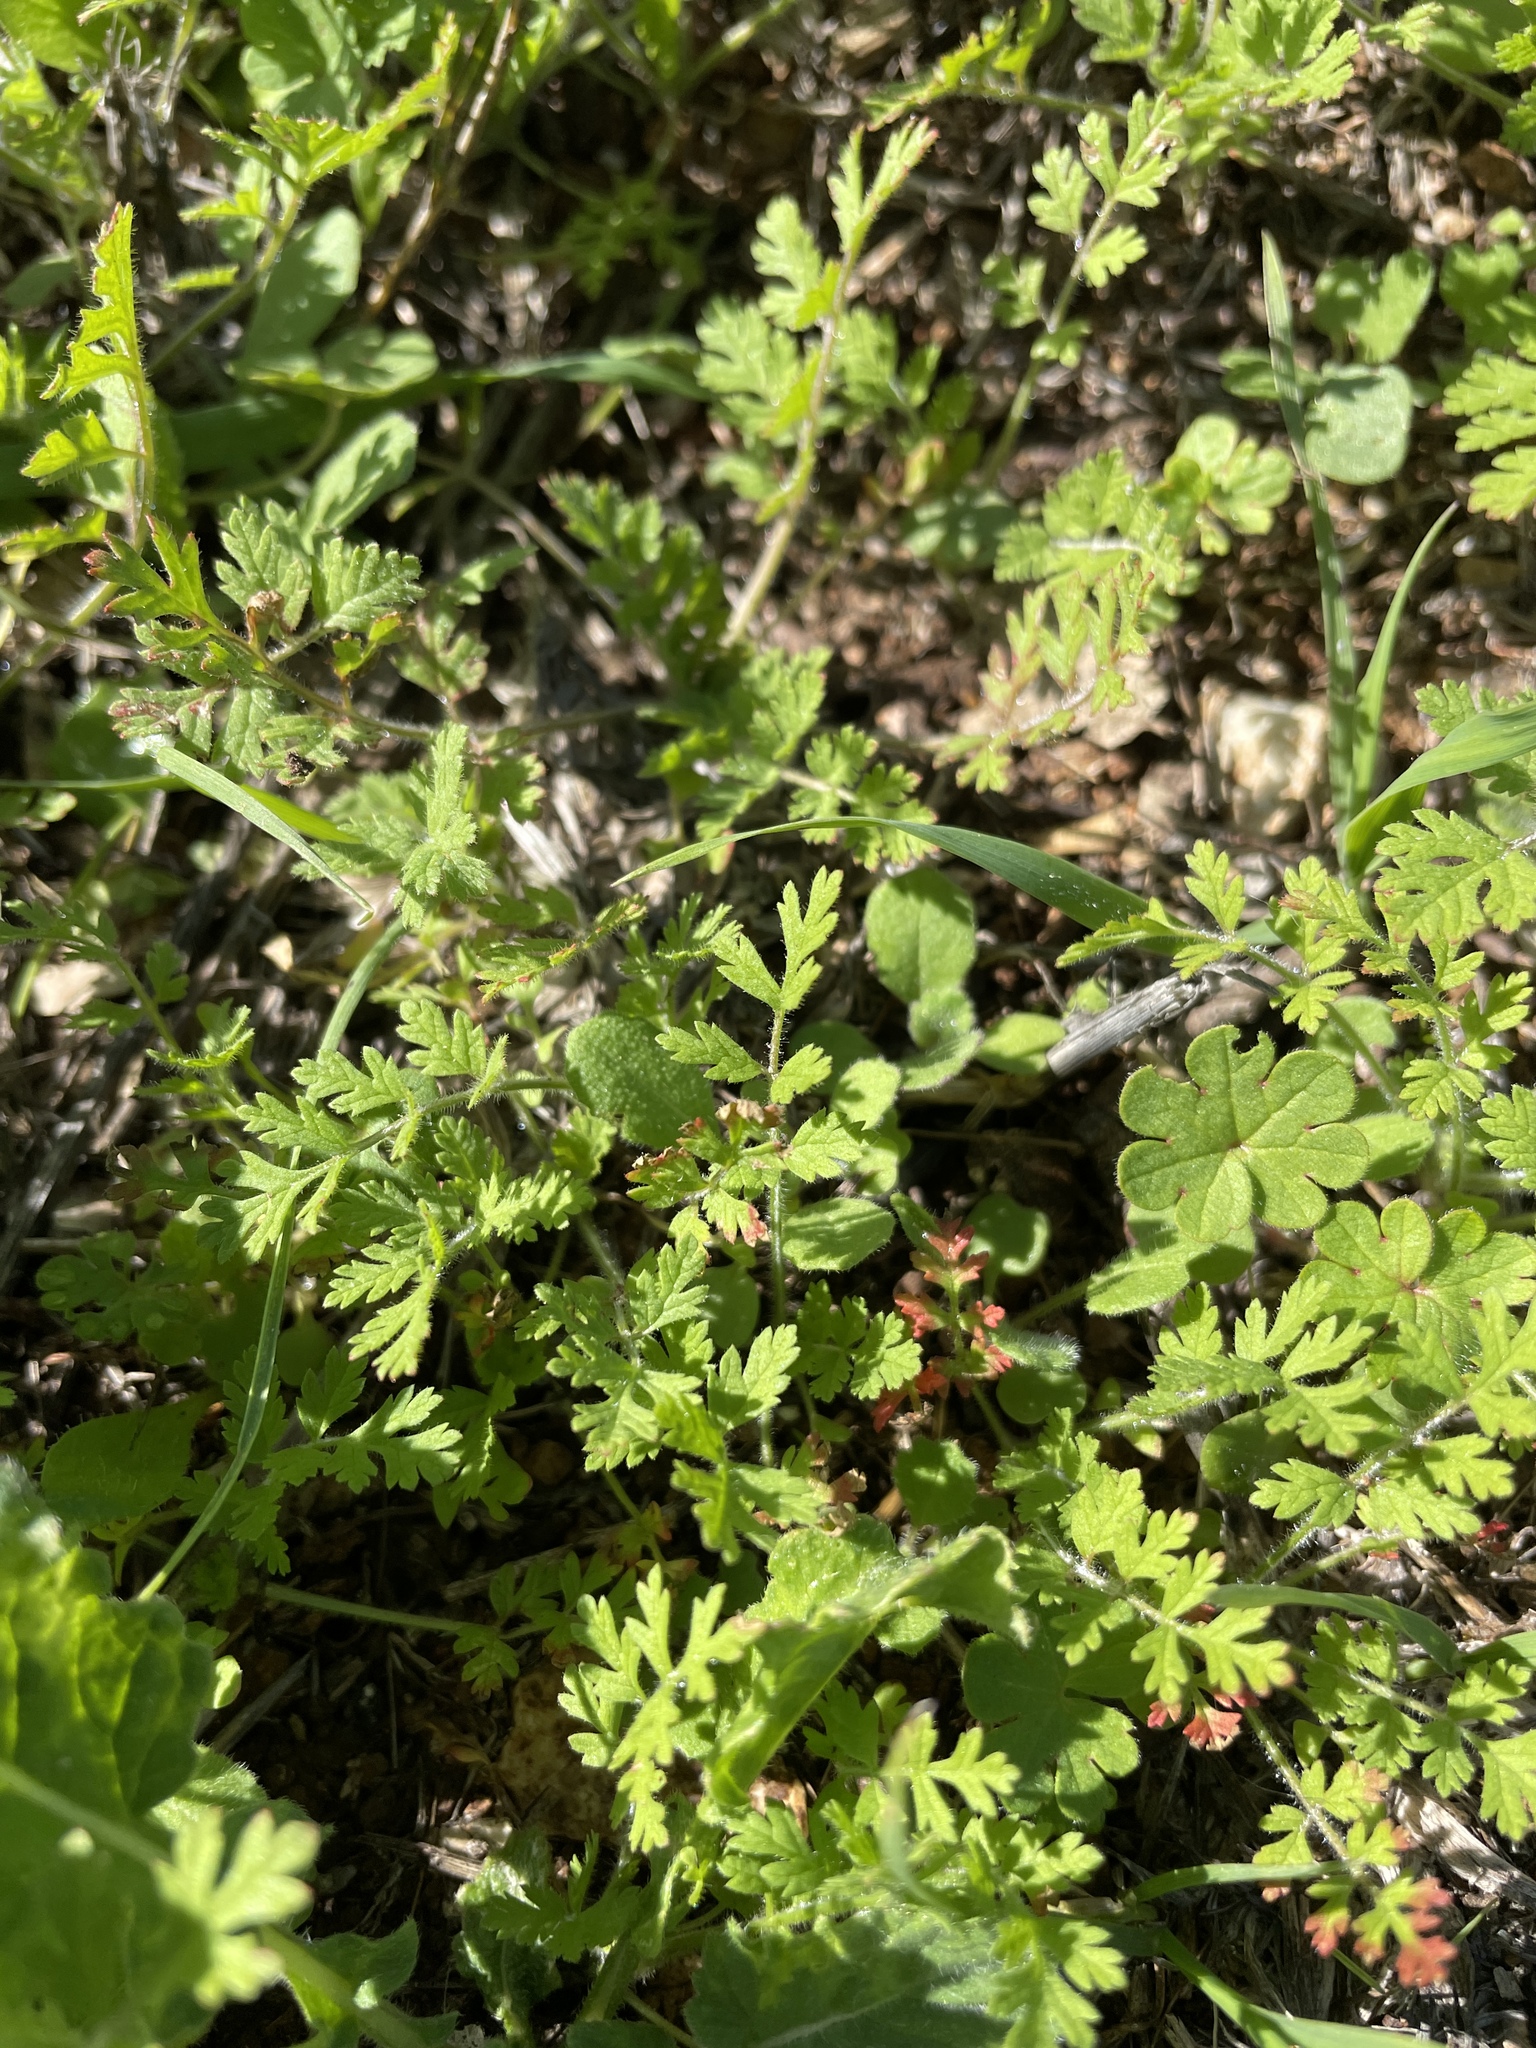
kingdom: Plantae
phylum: Tracheophyta
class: Magnoliopsida
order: Geraniales
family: Geraniaceae
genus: Erodium
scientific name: Erodium
